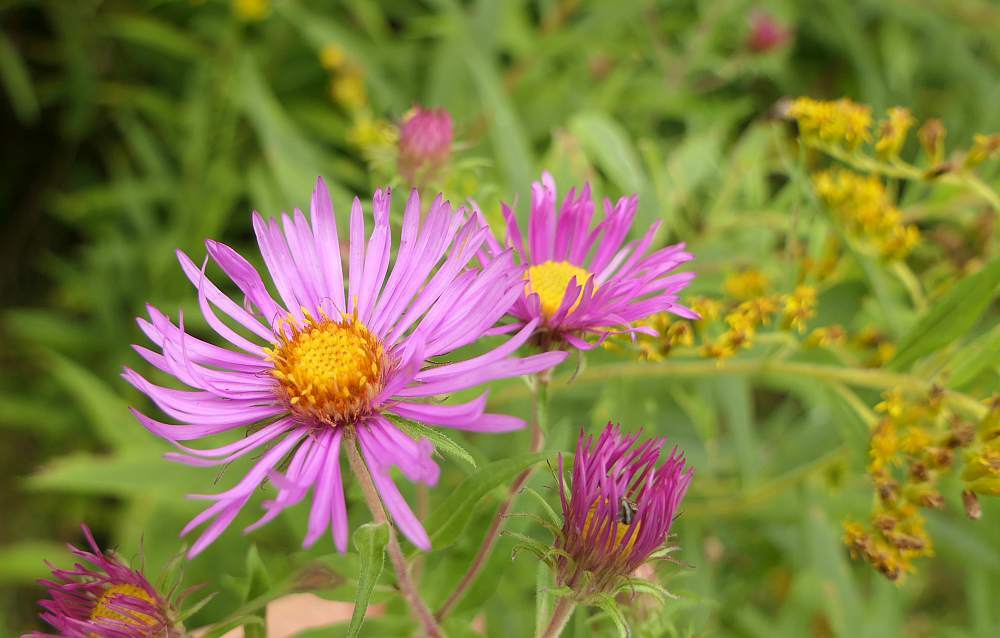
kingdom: Plantae
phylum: Tracheophyta
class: Magnoliopsida
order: Asterales
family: Asteraceae
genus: Symphyotrichum
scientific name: Symphyotrichum novae-angliae
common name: Michaelmas daisy
